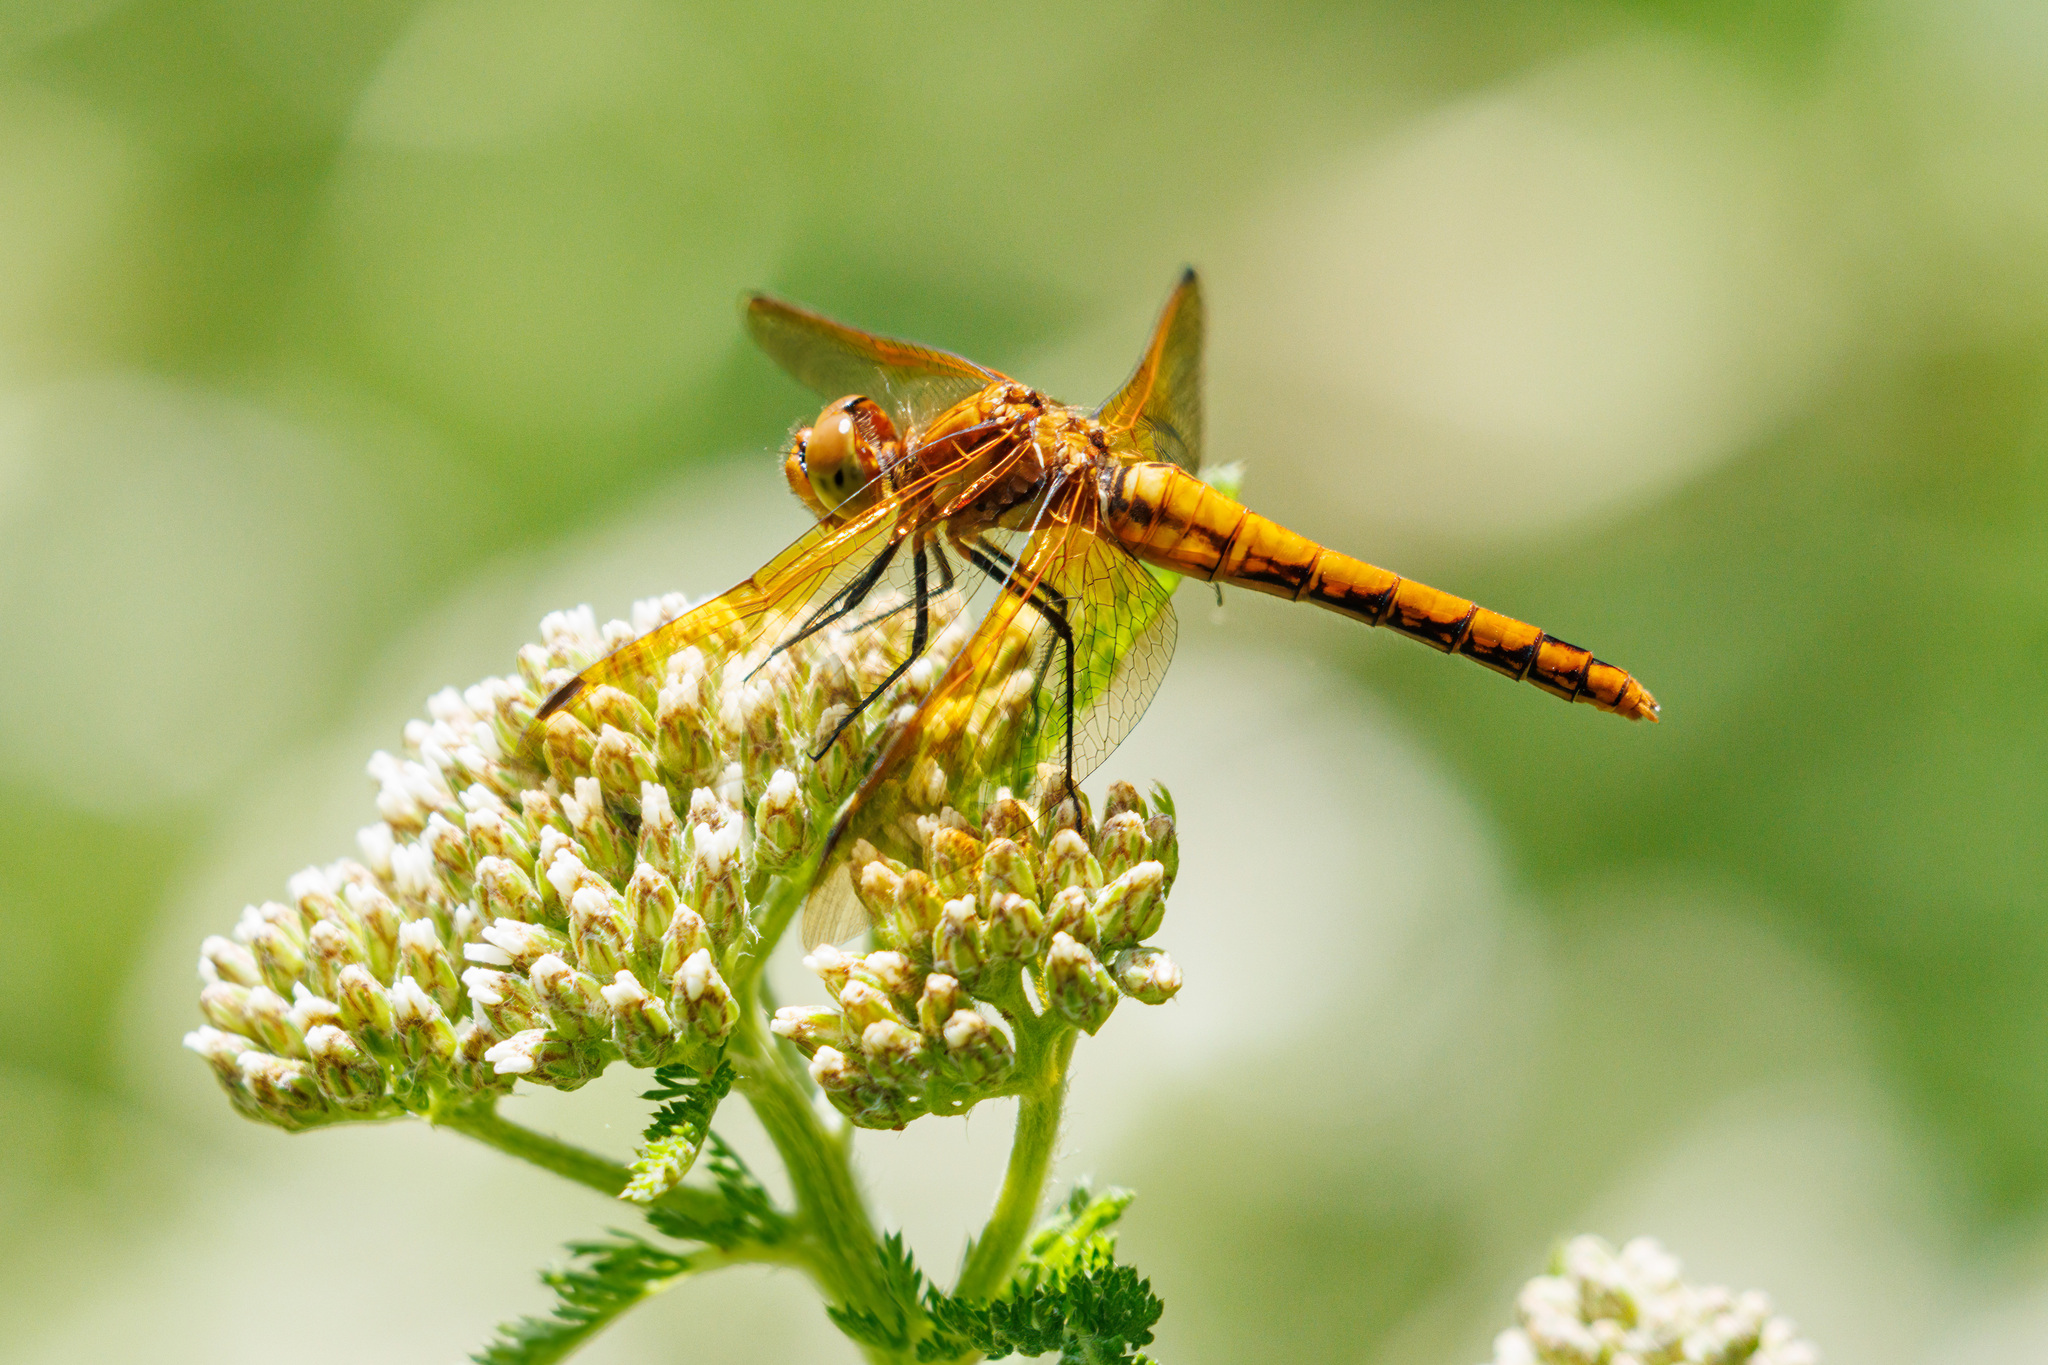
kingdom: Animalia
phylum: Arthropoda
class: Insecta
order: Odonata
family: Libellulidae
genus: Sympetrum
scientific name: Sympetrum madidum
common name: Red-veined meadowhawk
